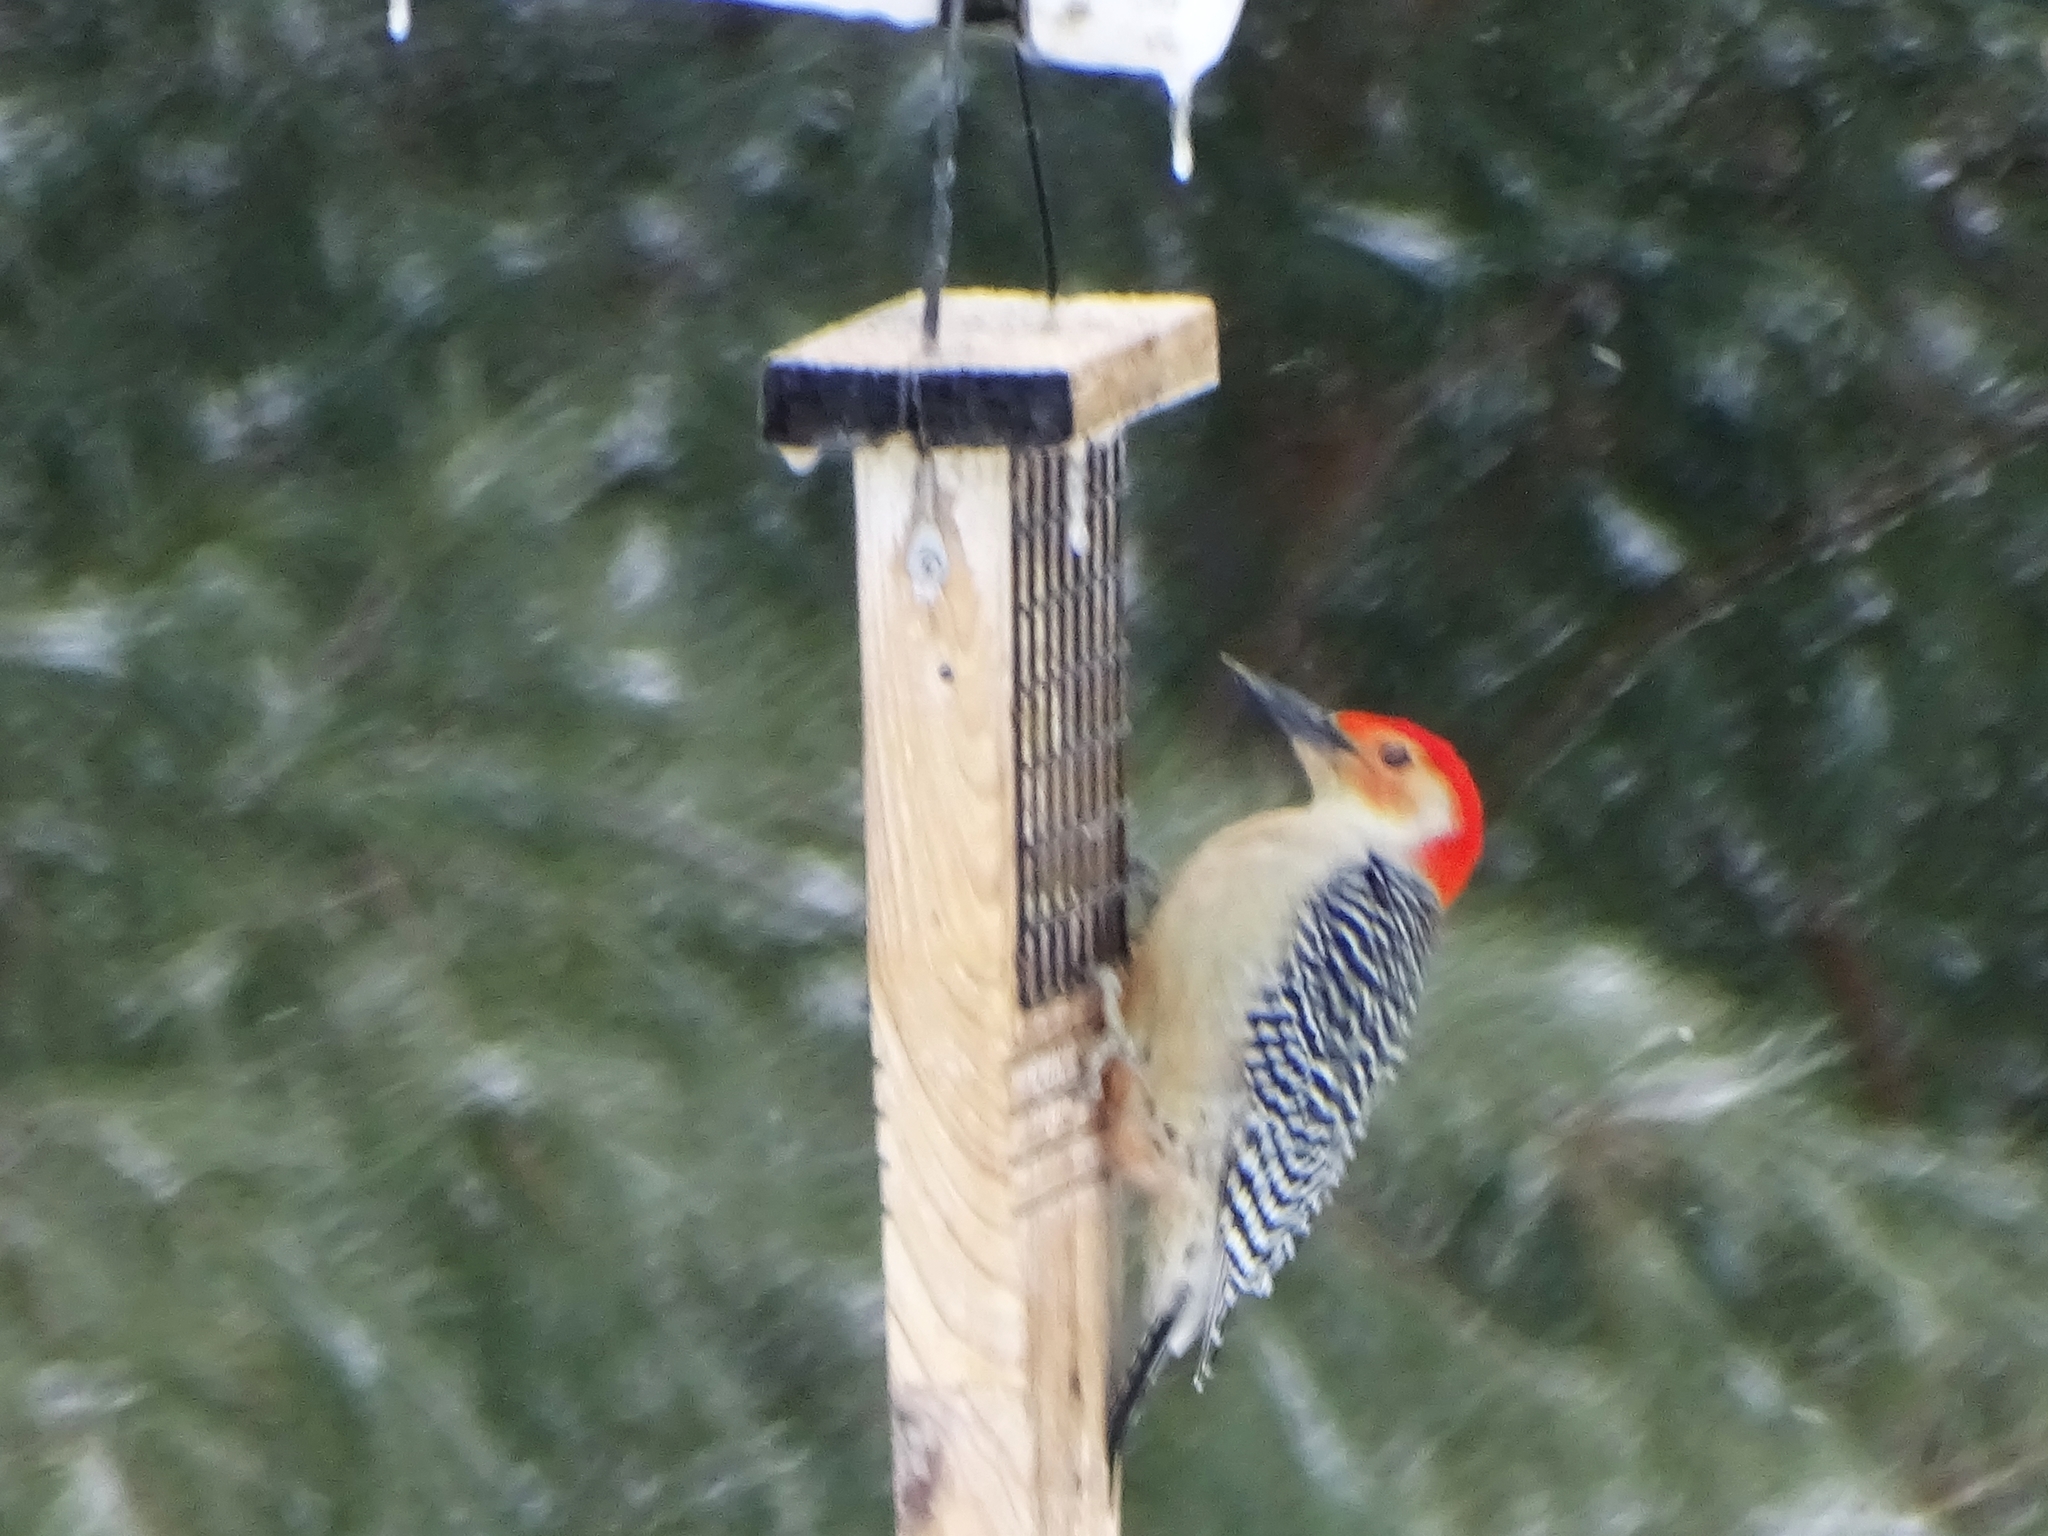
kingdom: Animalia
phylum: Chordata
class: Aves
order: Piciformes
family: Picidae
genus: Melanerpes
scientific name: Melanerpes carolinus
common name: Red-bellied woodpecker
